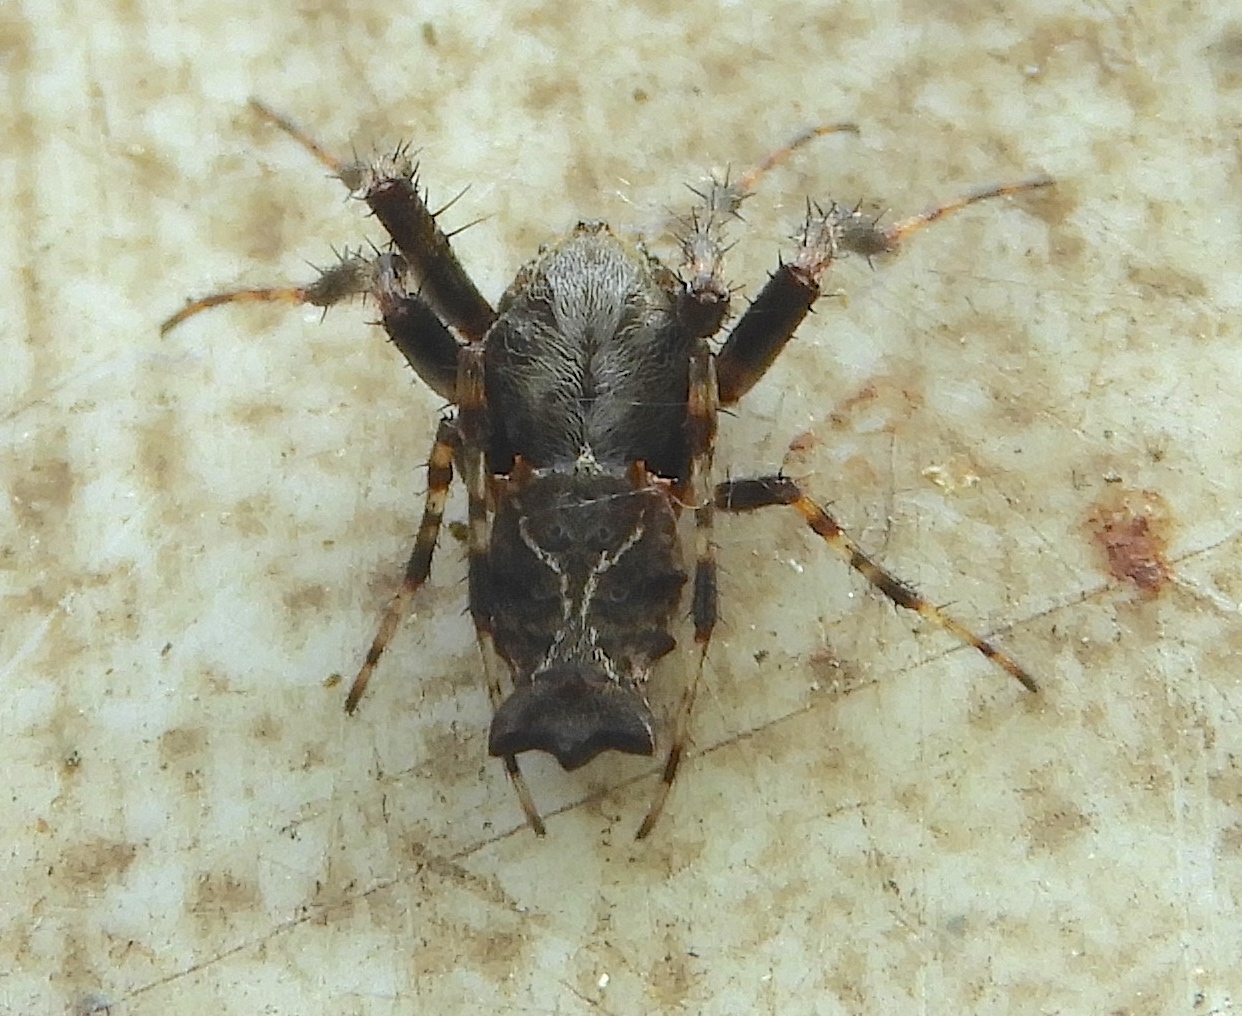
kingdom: Animalia
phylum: Arthropoda
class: Arachnida
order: Araneae
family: Araneidae
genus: Wagneriana
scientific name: Wagneriana spicata
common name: Orb weavers
